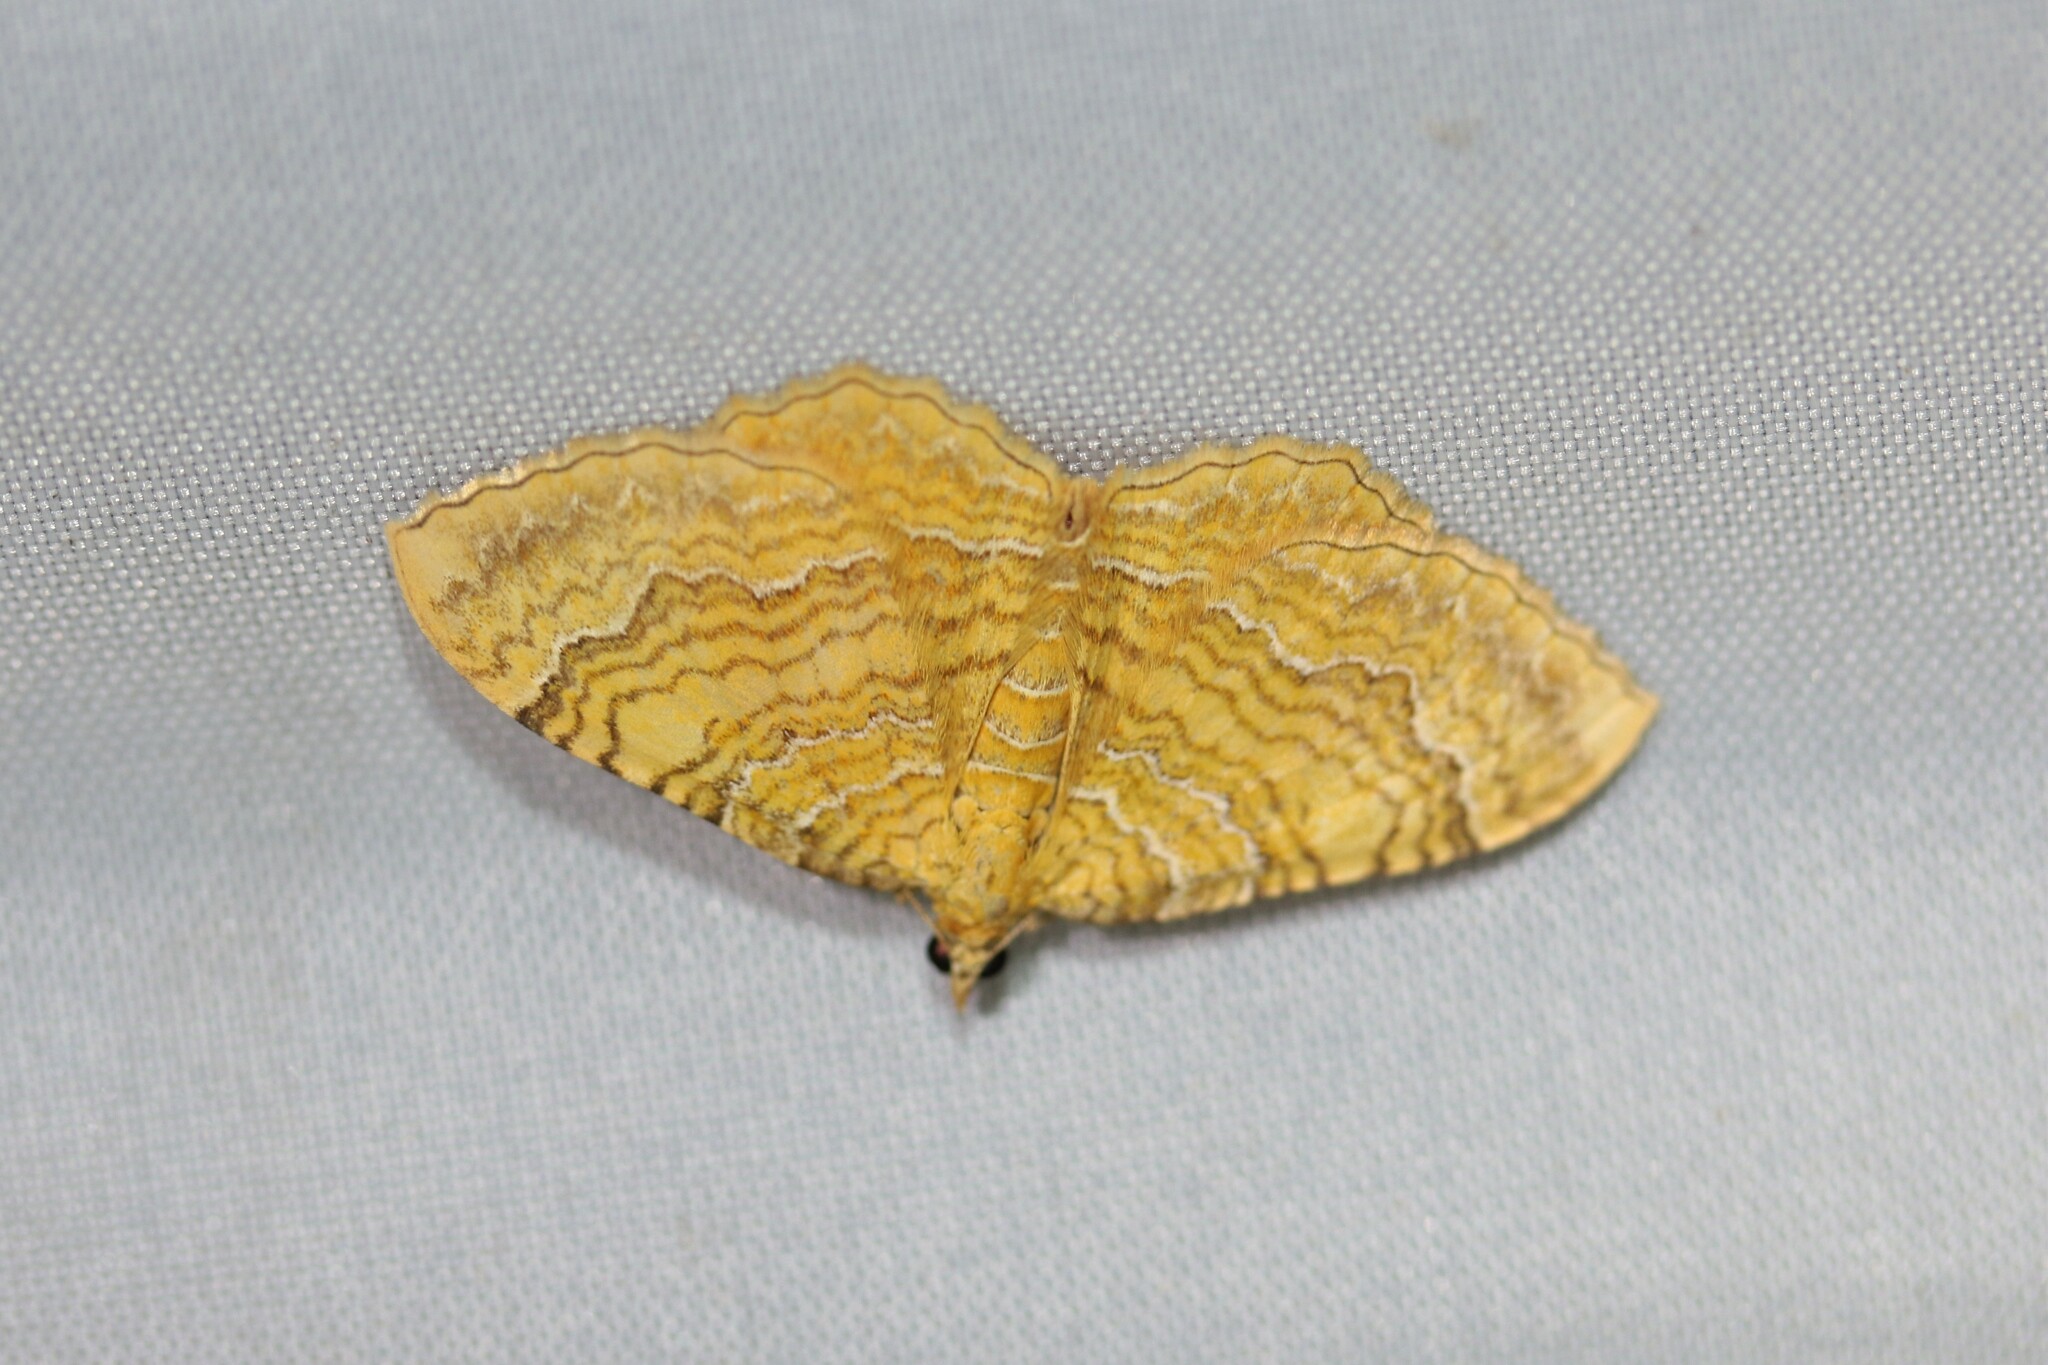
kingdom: Animalia
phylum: Arthropoda
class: Insecta
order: Lepidoptera
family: Geometridae
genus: Camptogramma
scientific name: Camptogramma bilineata
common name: Yellow shell
